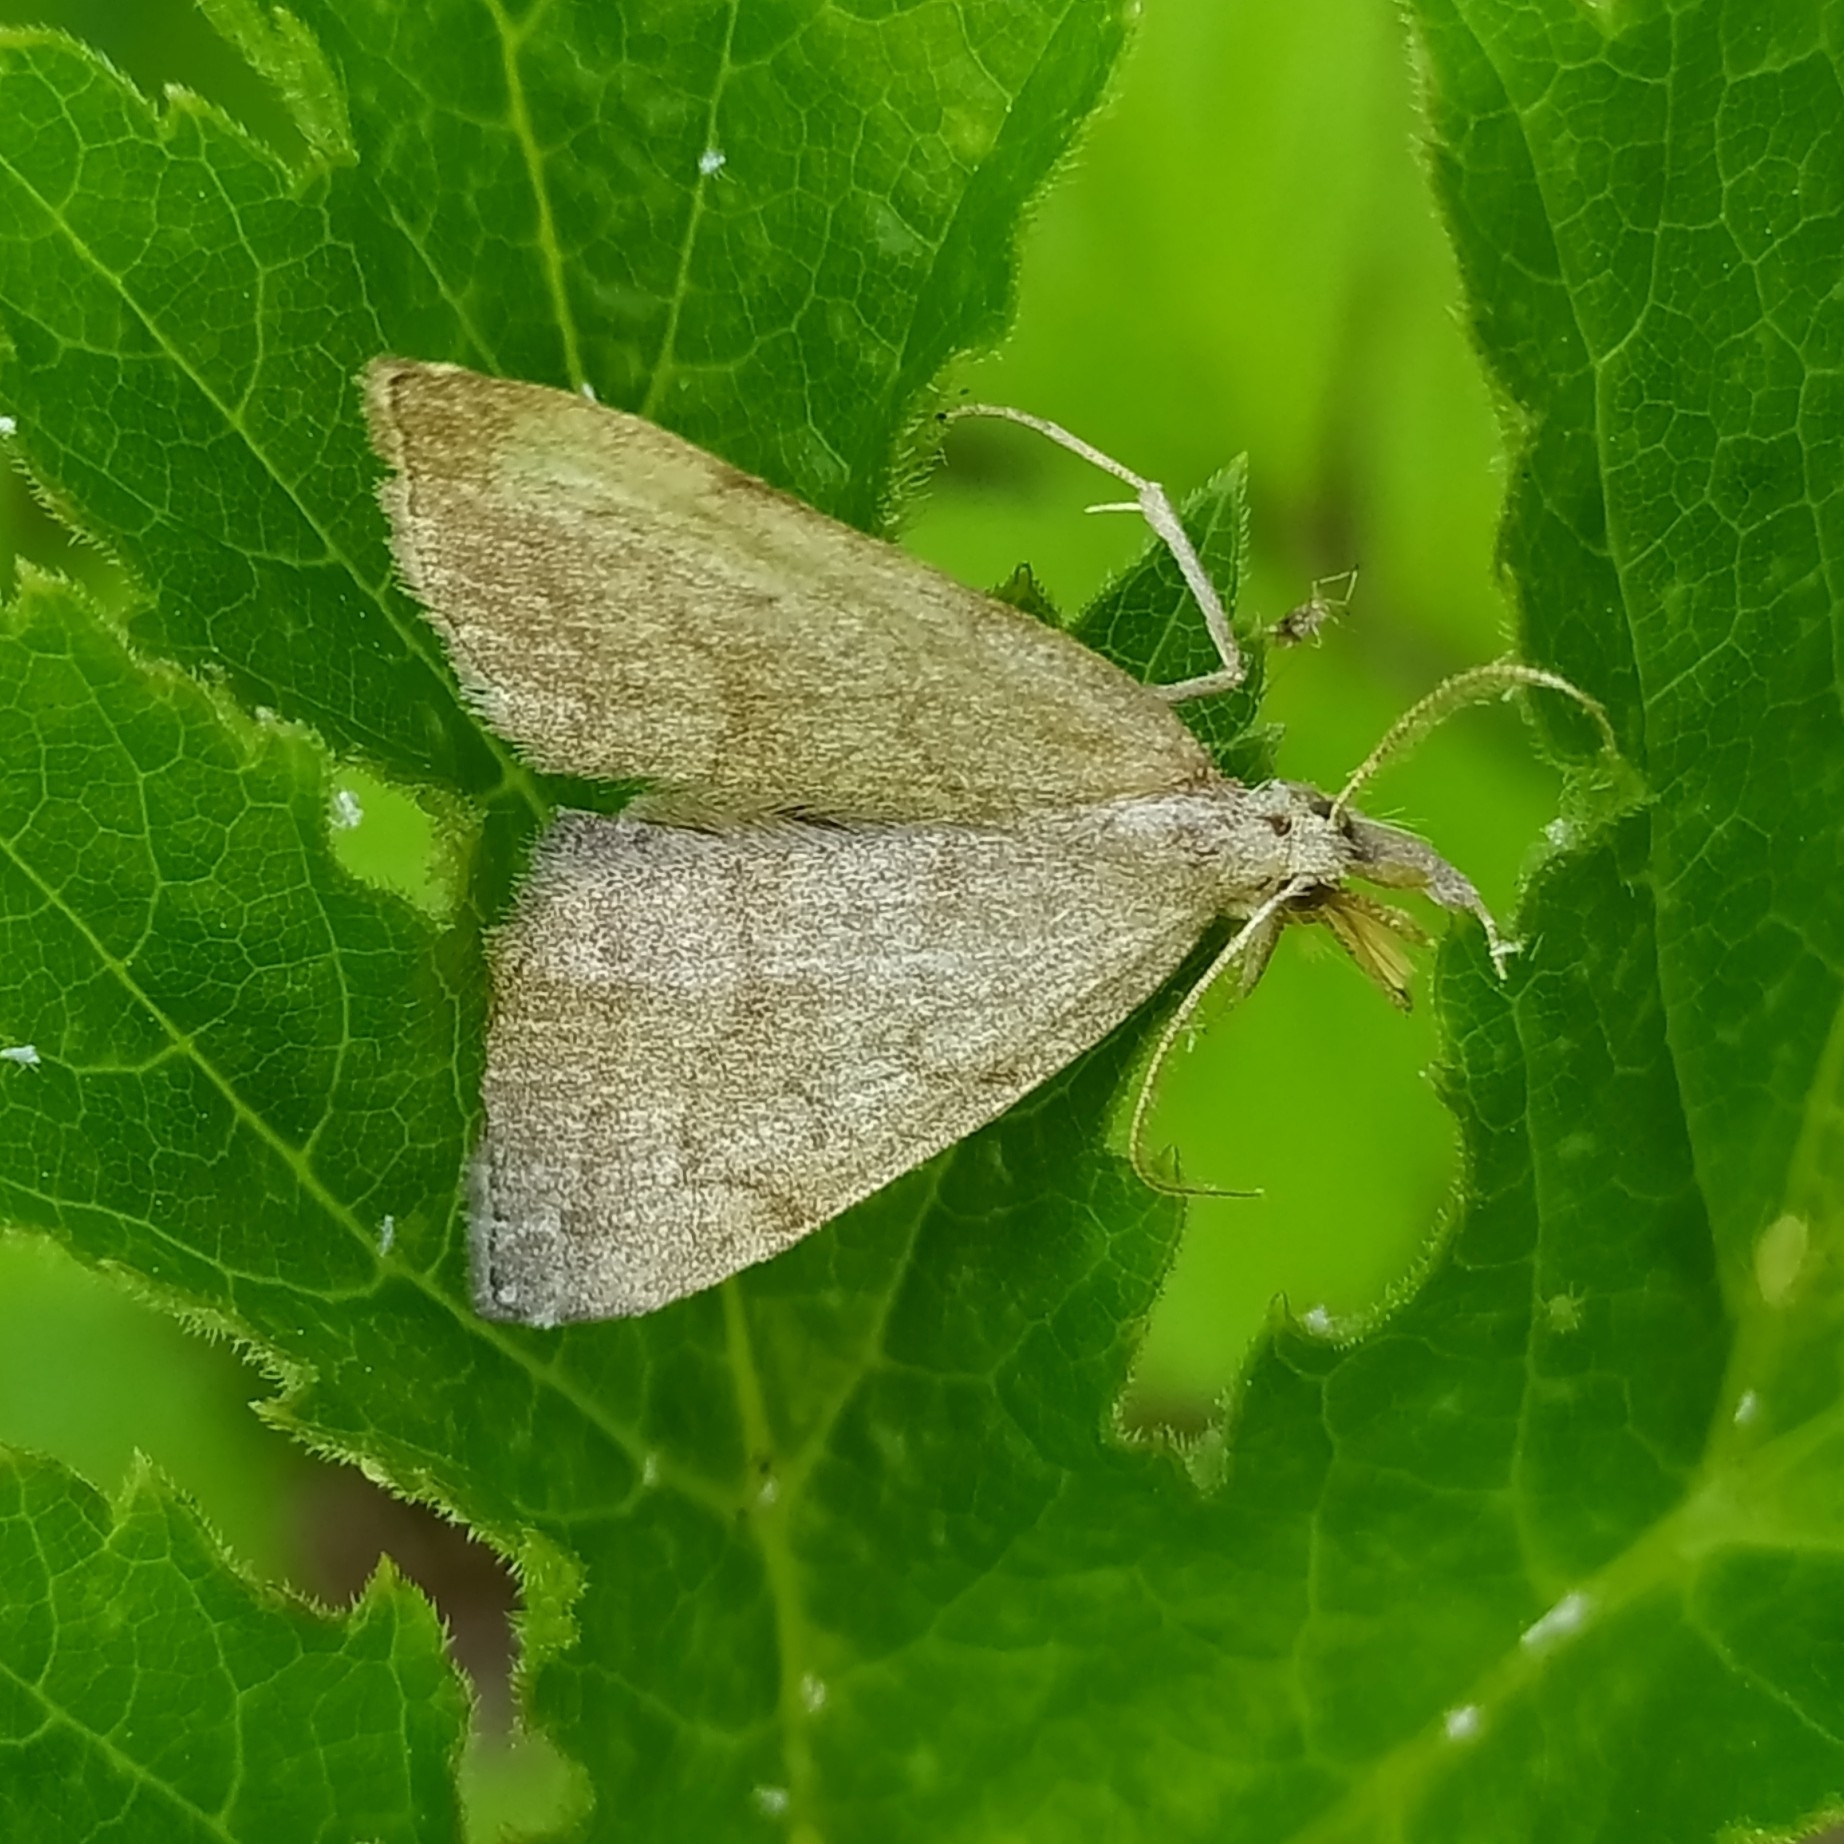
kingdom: Animalia
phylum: Arthropoda
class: Insecta
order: Lepidoptera
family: Erebidae
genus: Pechipogo
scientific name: Pechipogo strigilata
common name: Common fan-foot
